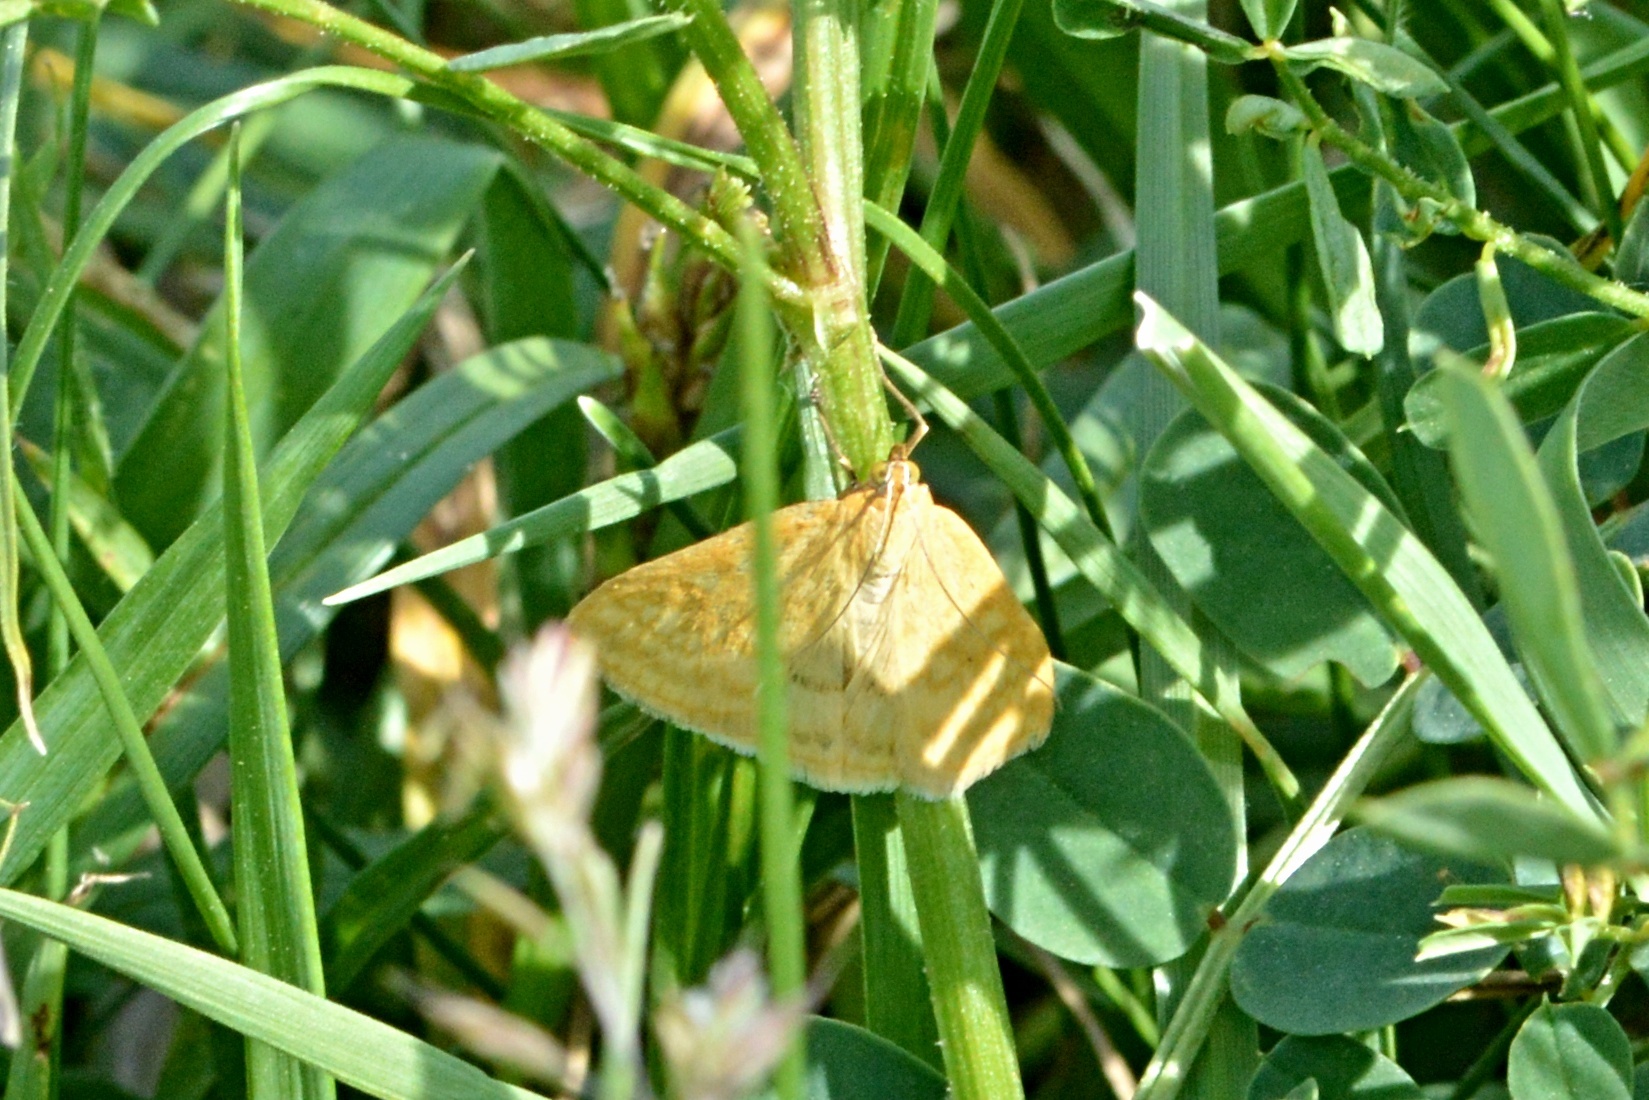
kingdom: Animalia
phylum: Arthropoda
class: Insecta
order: Lepidoptera
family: Crambidae
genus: Sitochroa
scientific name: Sitochroa verticalis
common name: Lesser pearl
